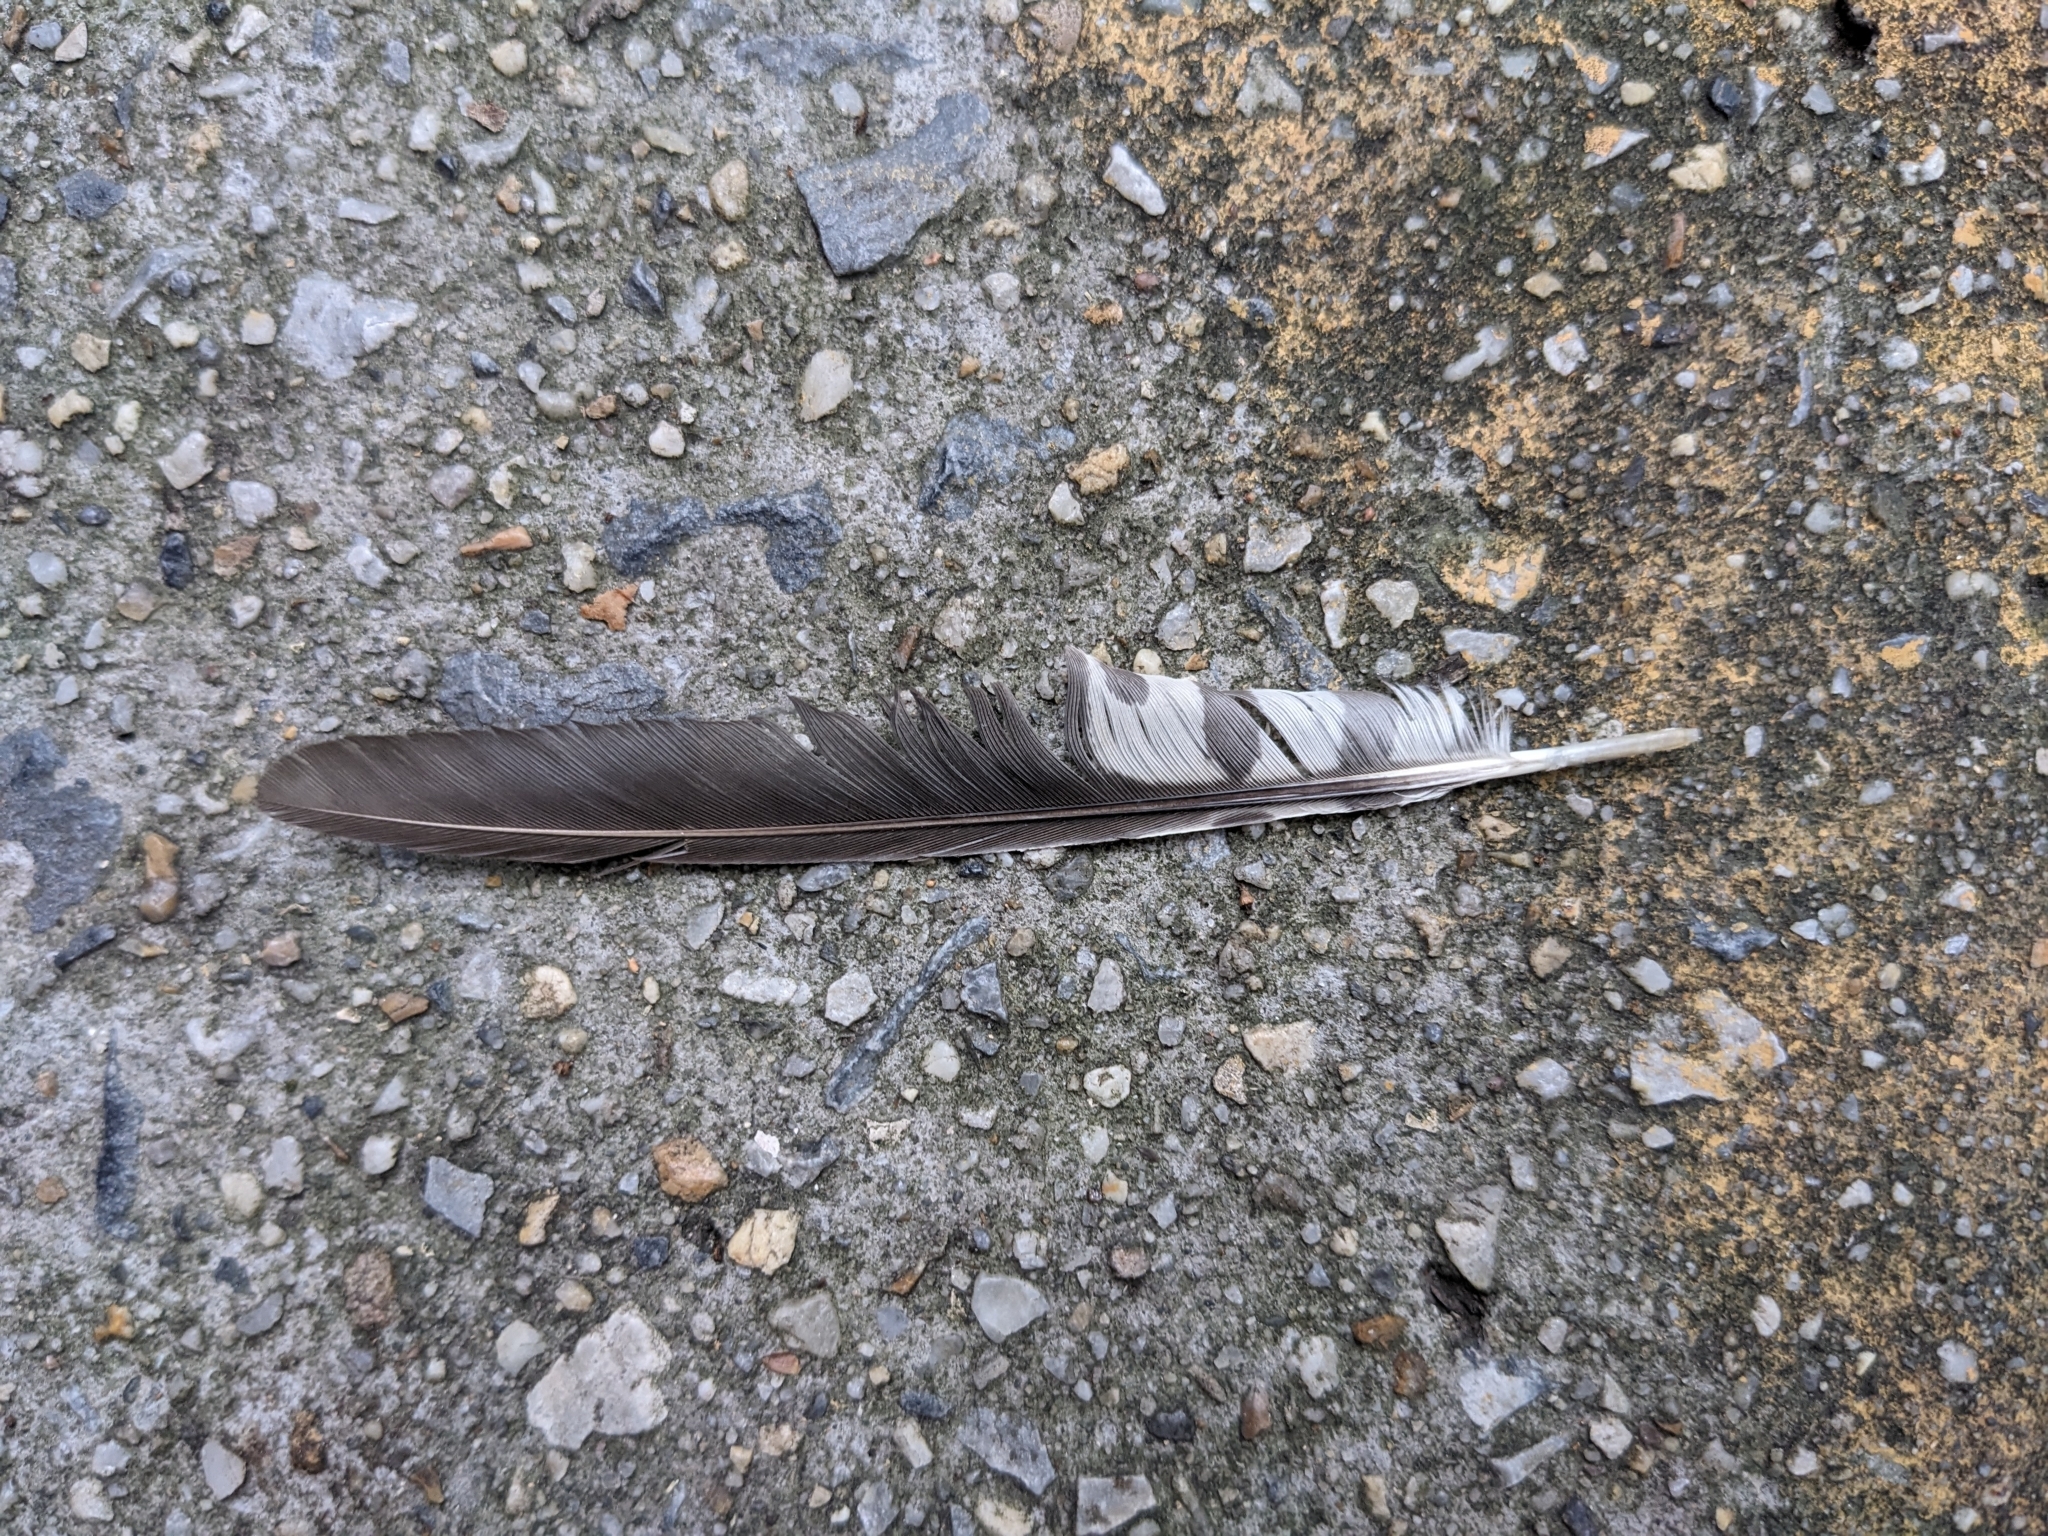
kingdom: Animalia
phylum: Chordata
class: Aves
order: Piciformes
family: Picidae
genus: Melanerpes
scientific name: Melanerpes carolinus
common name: Red-bellied woodpecker
